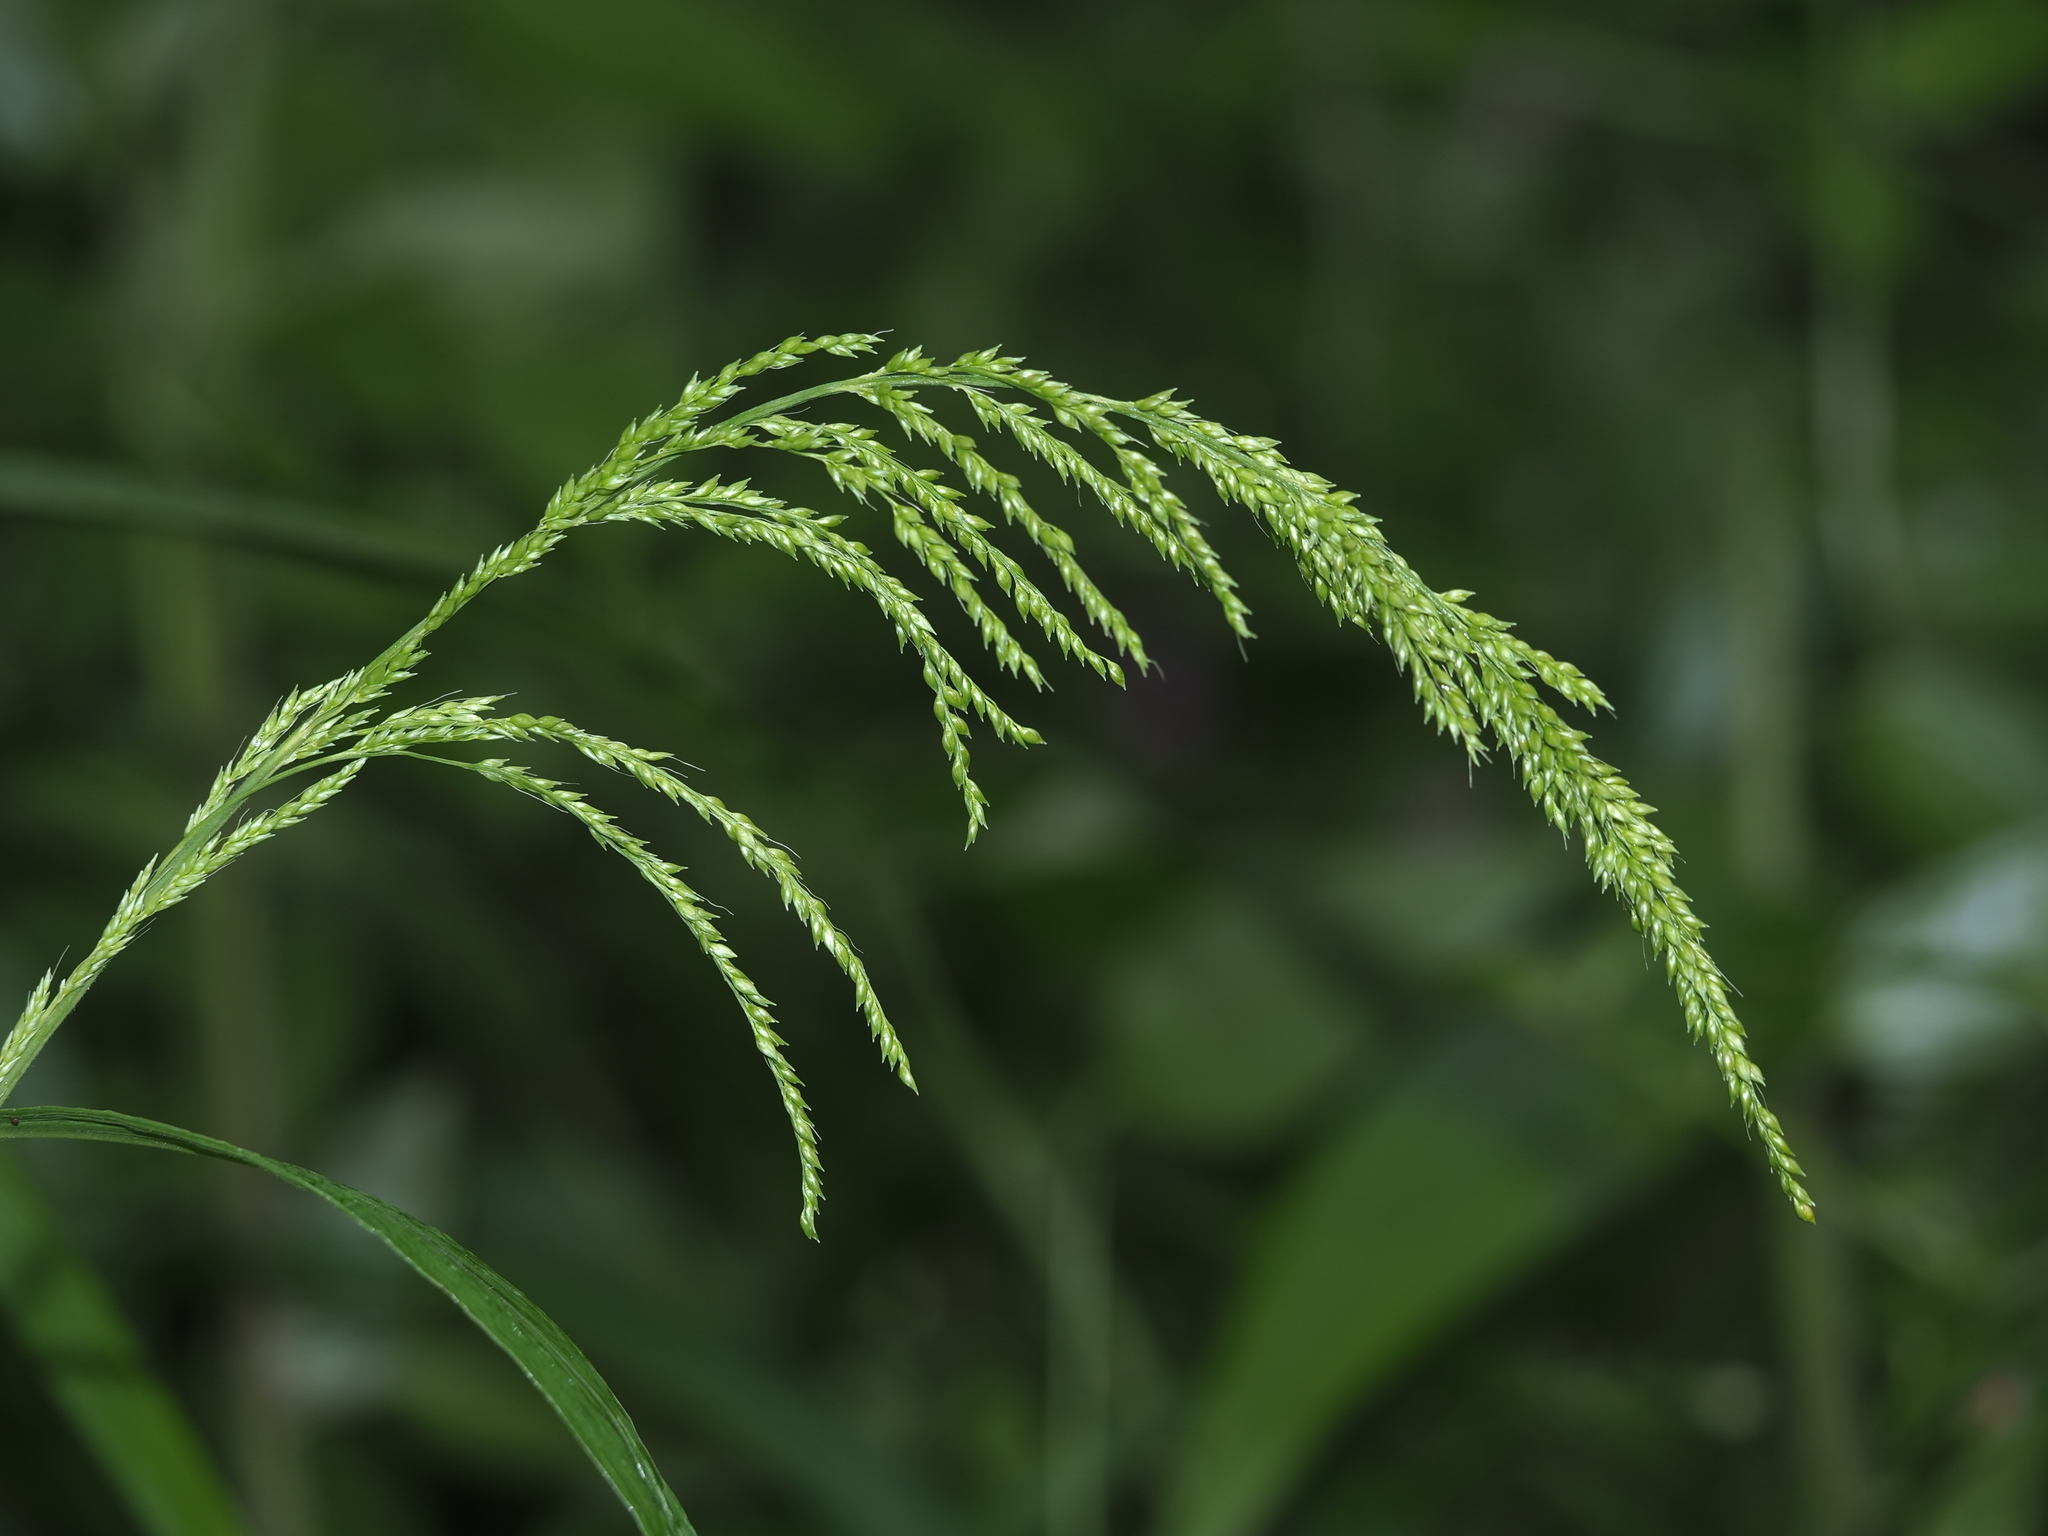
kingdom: Plantae
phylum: Tracheophyta
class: Liliopsida
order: Poales
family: Poaceae
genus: Setaria
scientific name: Setaria palmifolia
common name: Broadleaved bristlegrass
